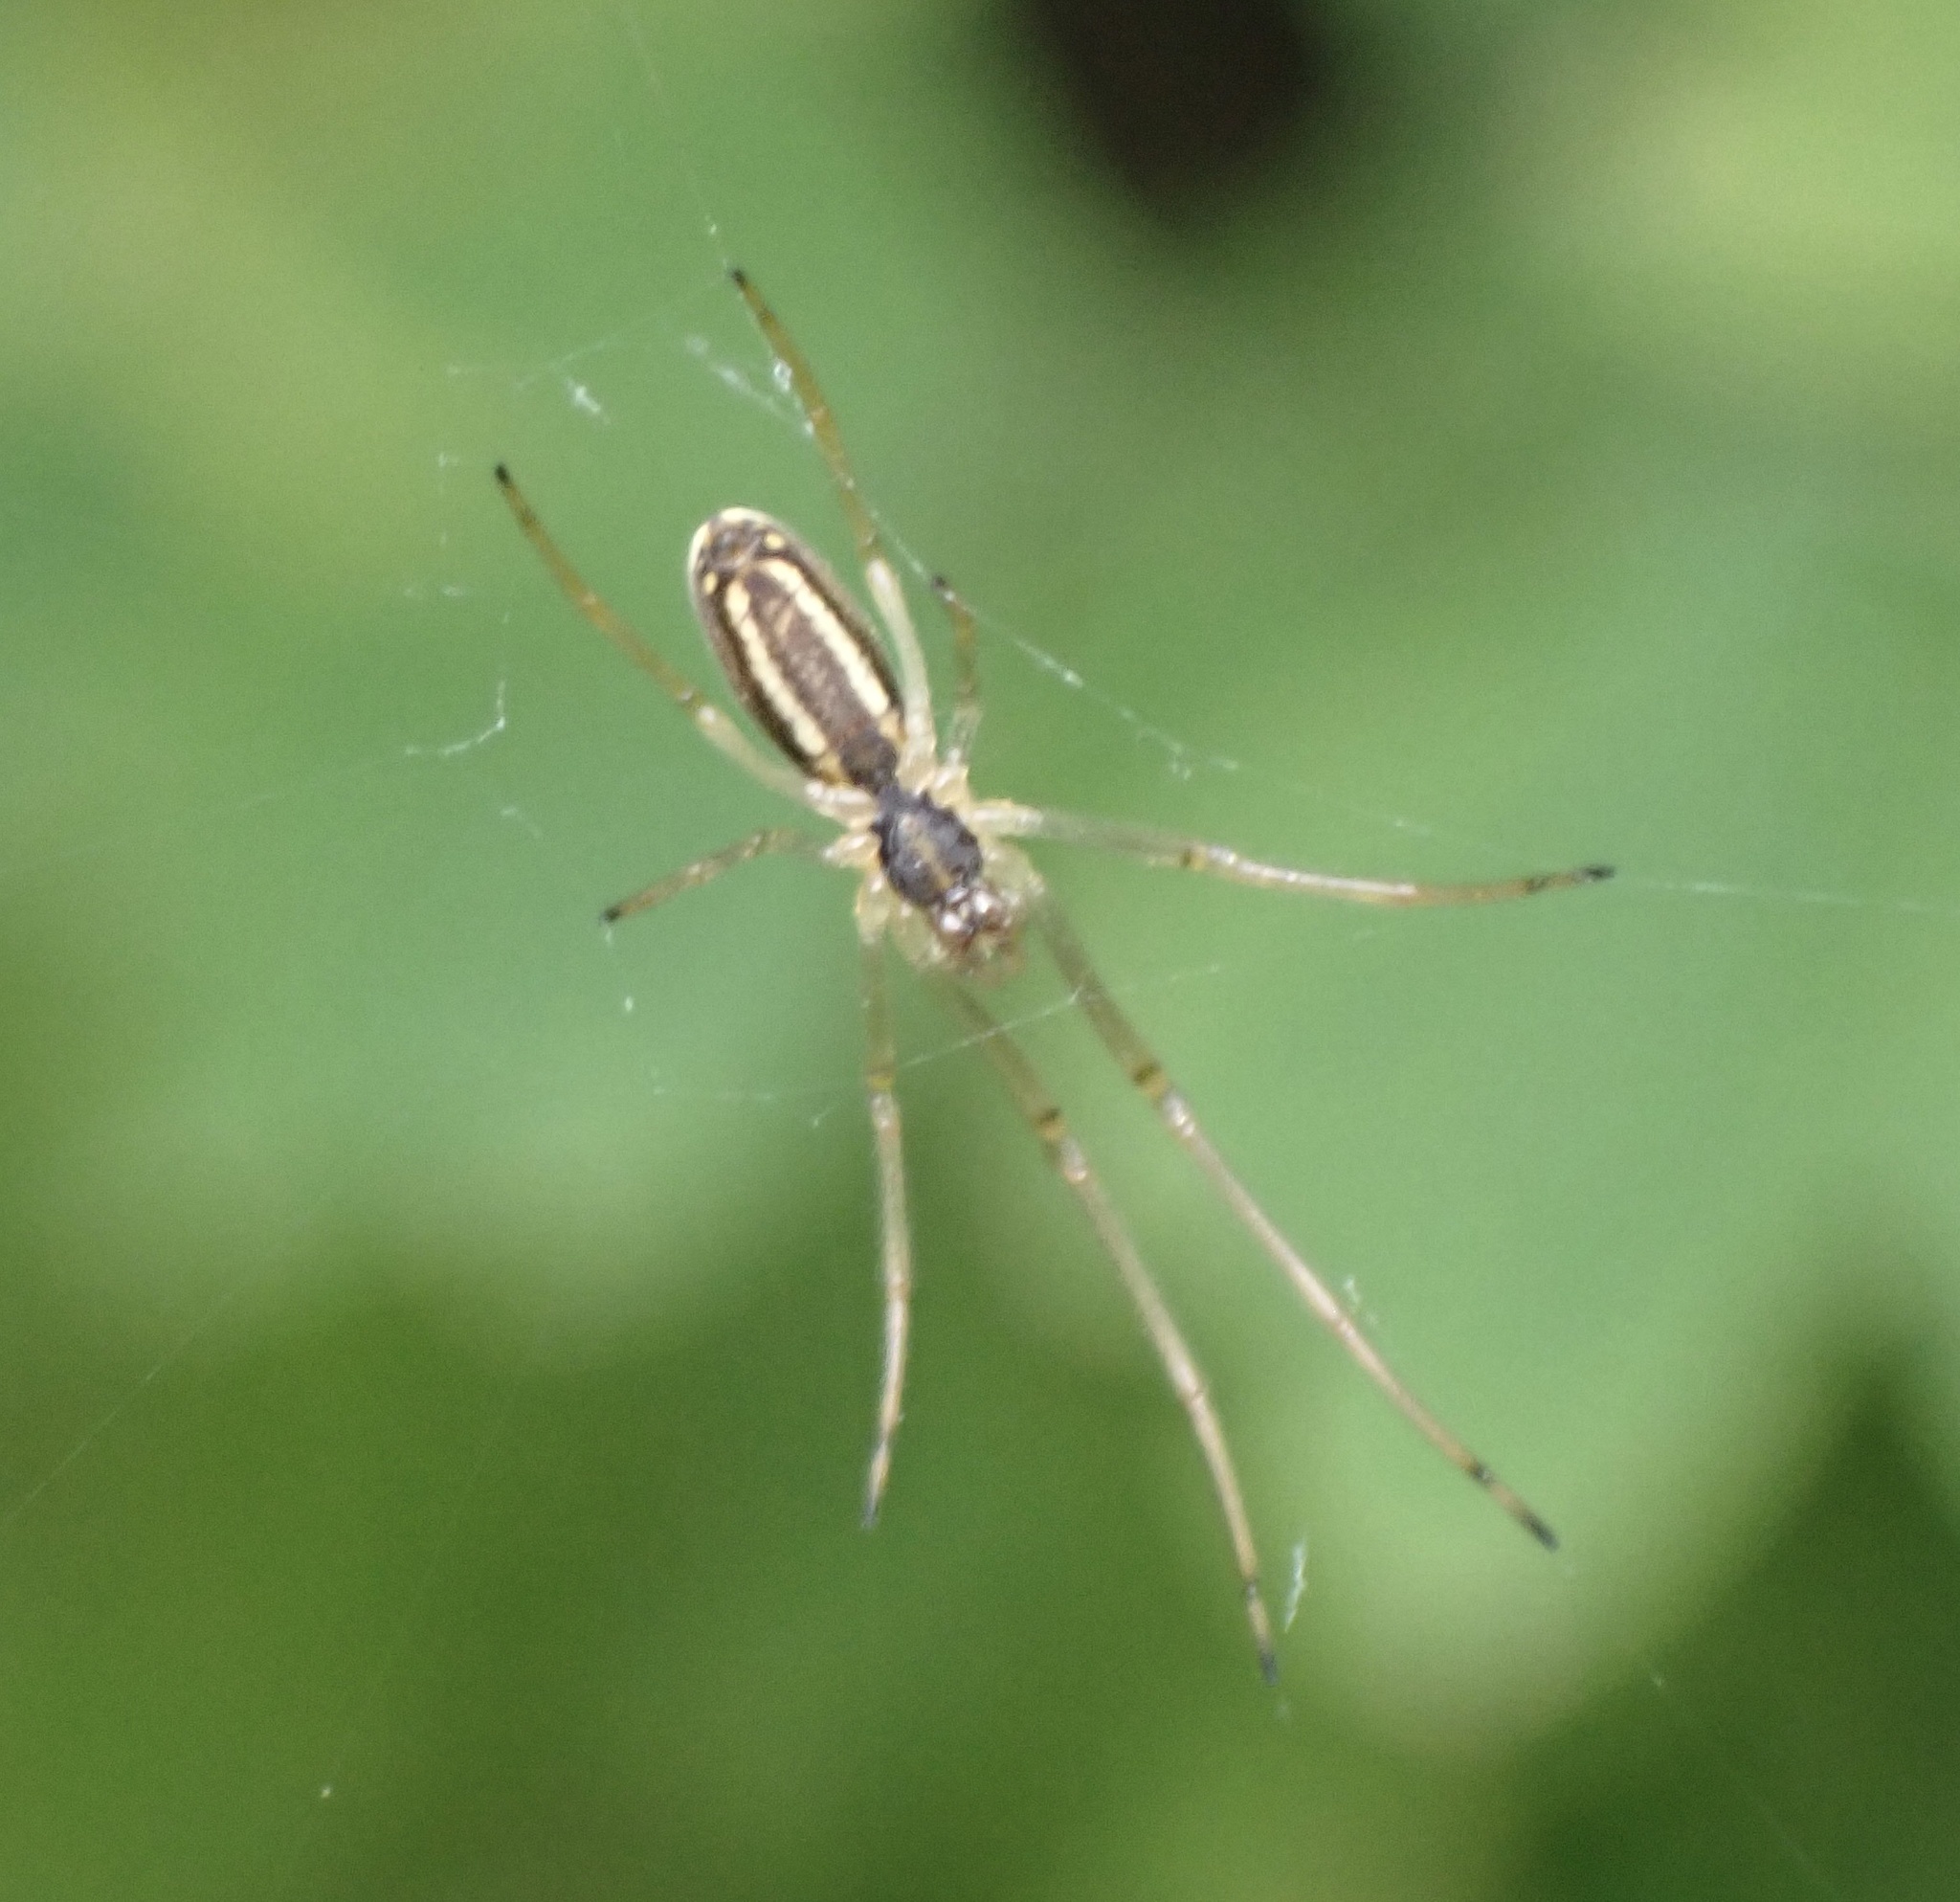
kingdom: Animalia
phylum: Arthropoda
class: Arachnida
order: Araneae
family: Tetragnathidae
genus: Tetragnatha
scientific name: Tetragnatha pinicola
